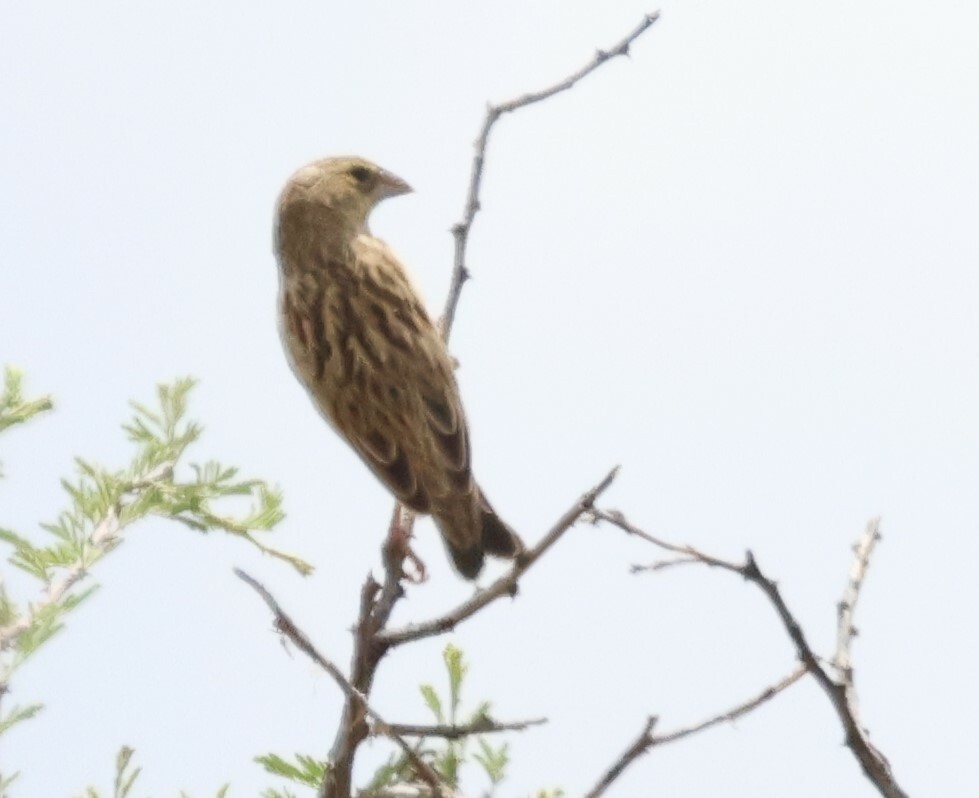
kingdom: Animalia
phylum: Chordata
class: Aves
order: Passeriformes
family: Ploceidae
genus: Euplectes
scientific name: Euplectes orix
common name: Southern red bishop
